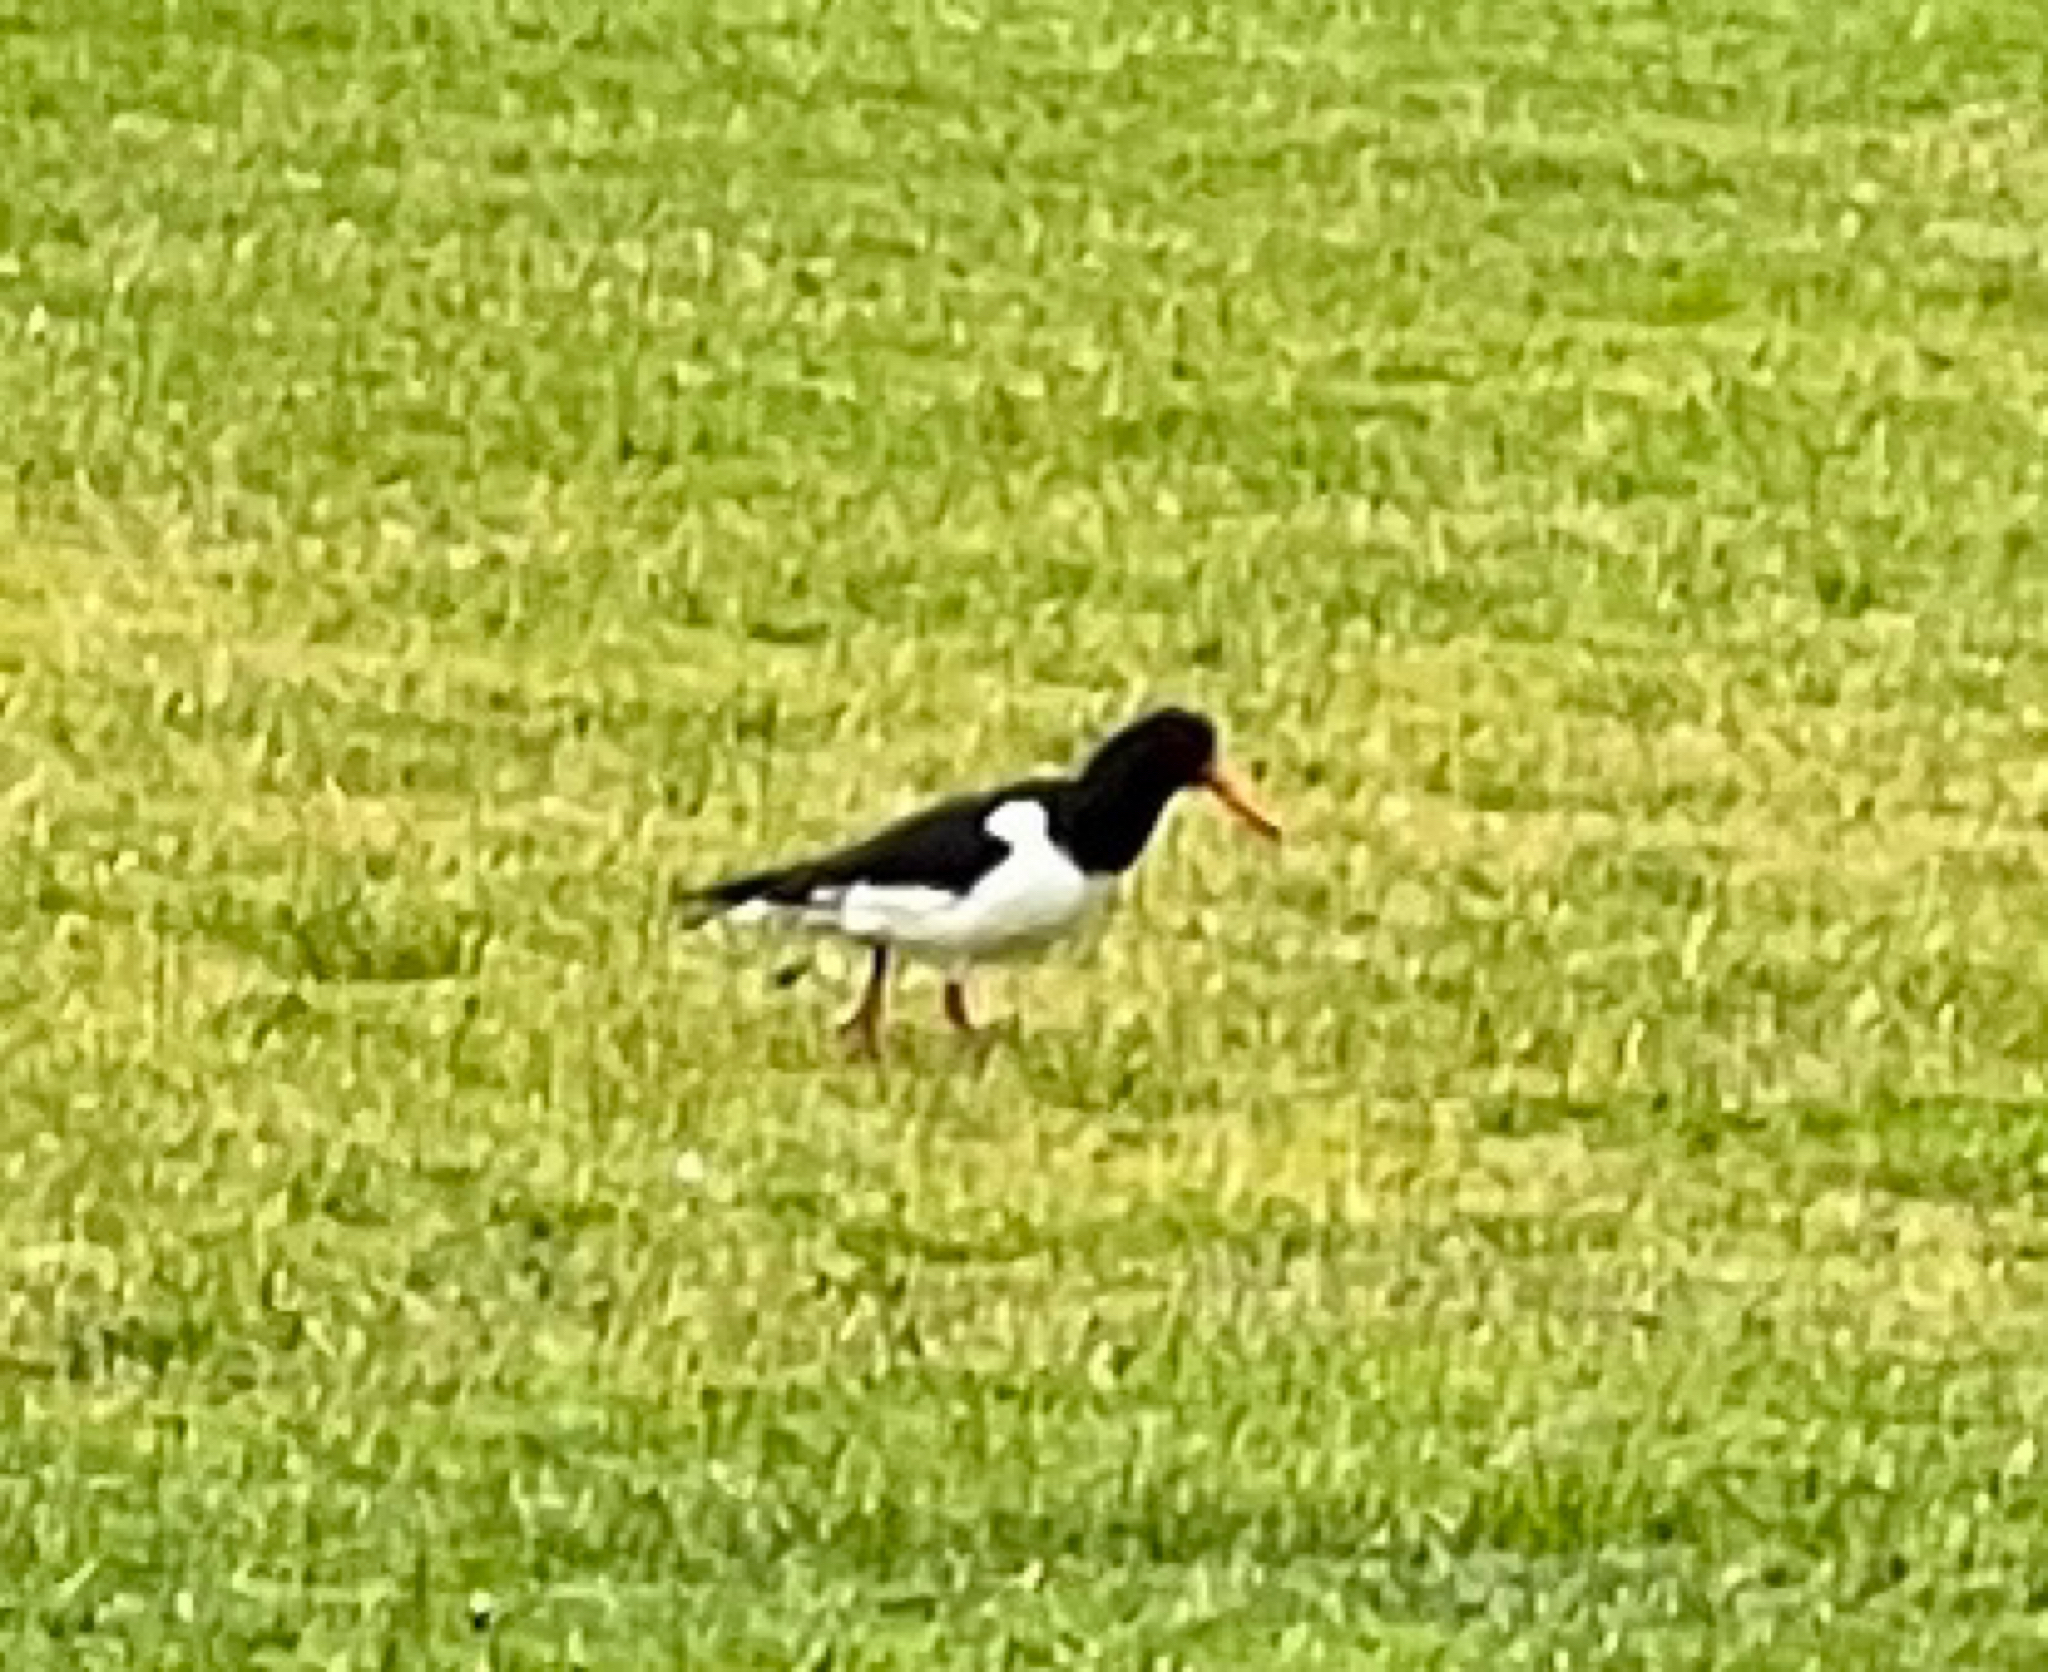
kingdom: Animalia
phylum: Chordata
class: Aves
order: Charadriiformes
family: Haematopodidae
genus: Haematopus
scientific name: Haematopus ostralegus
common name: Eurasian oystercatcher
